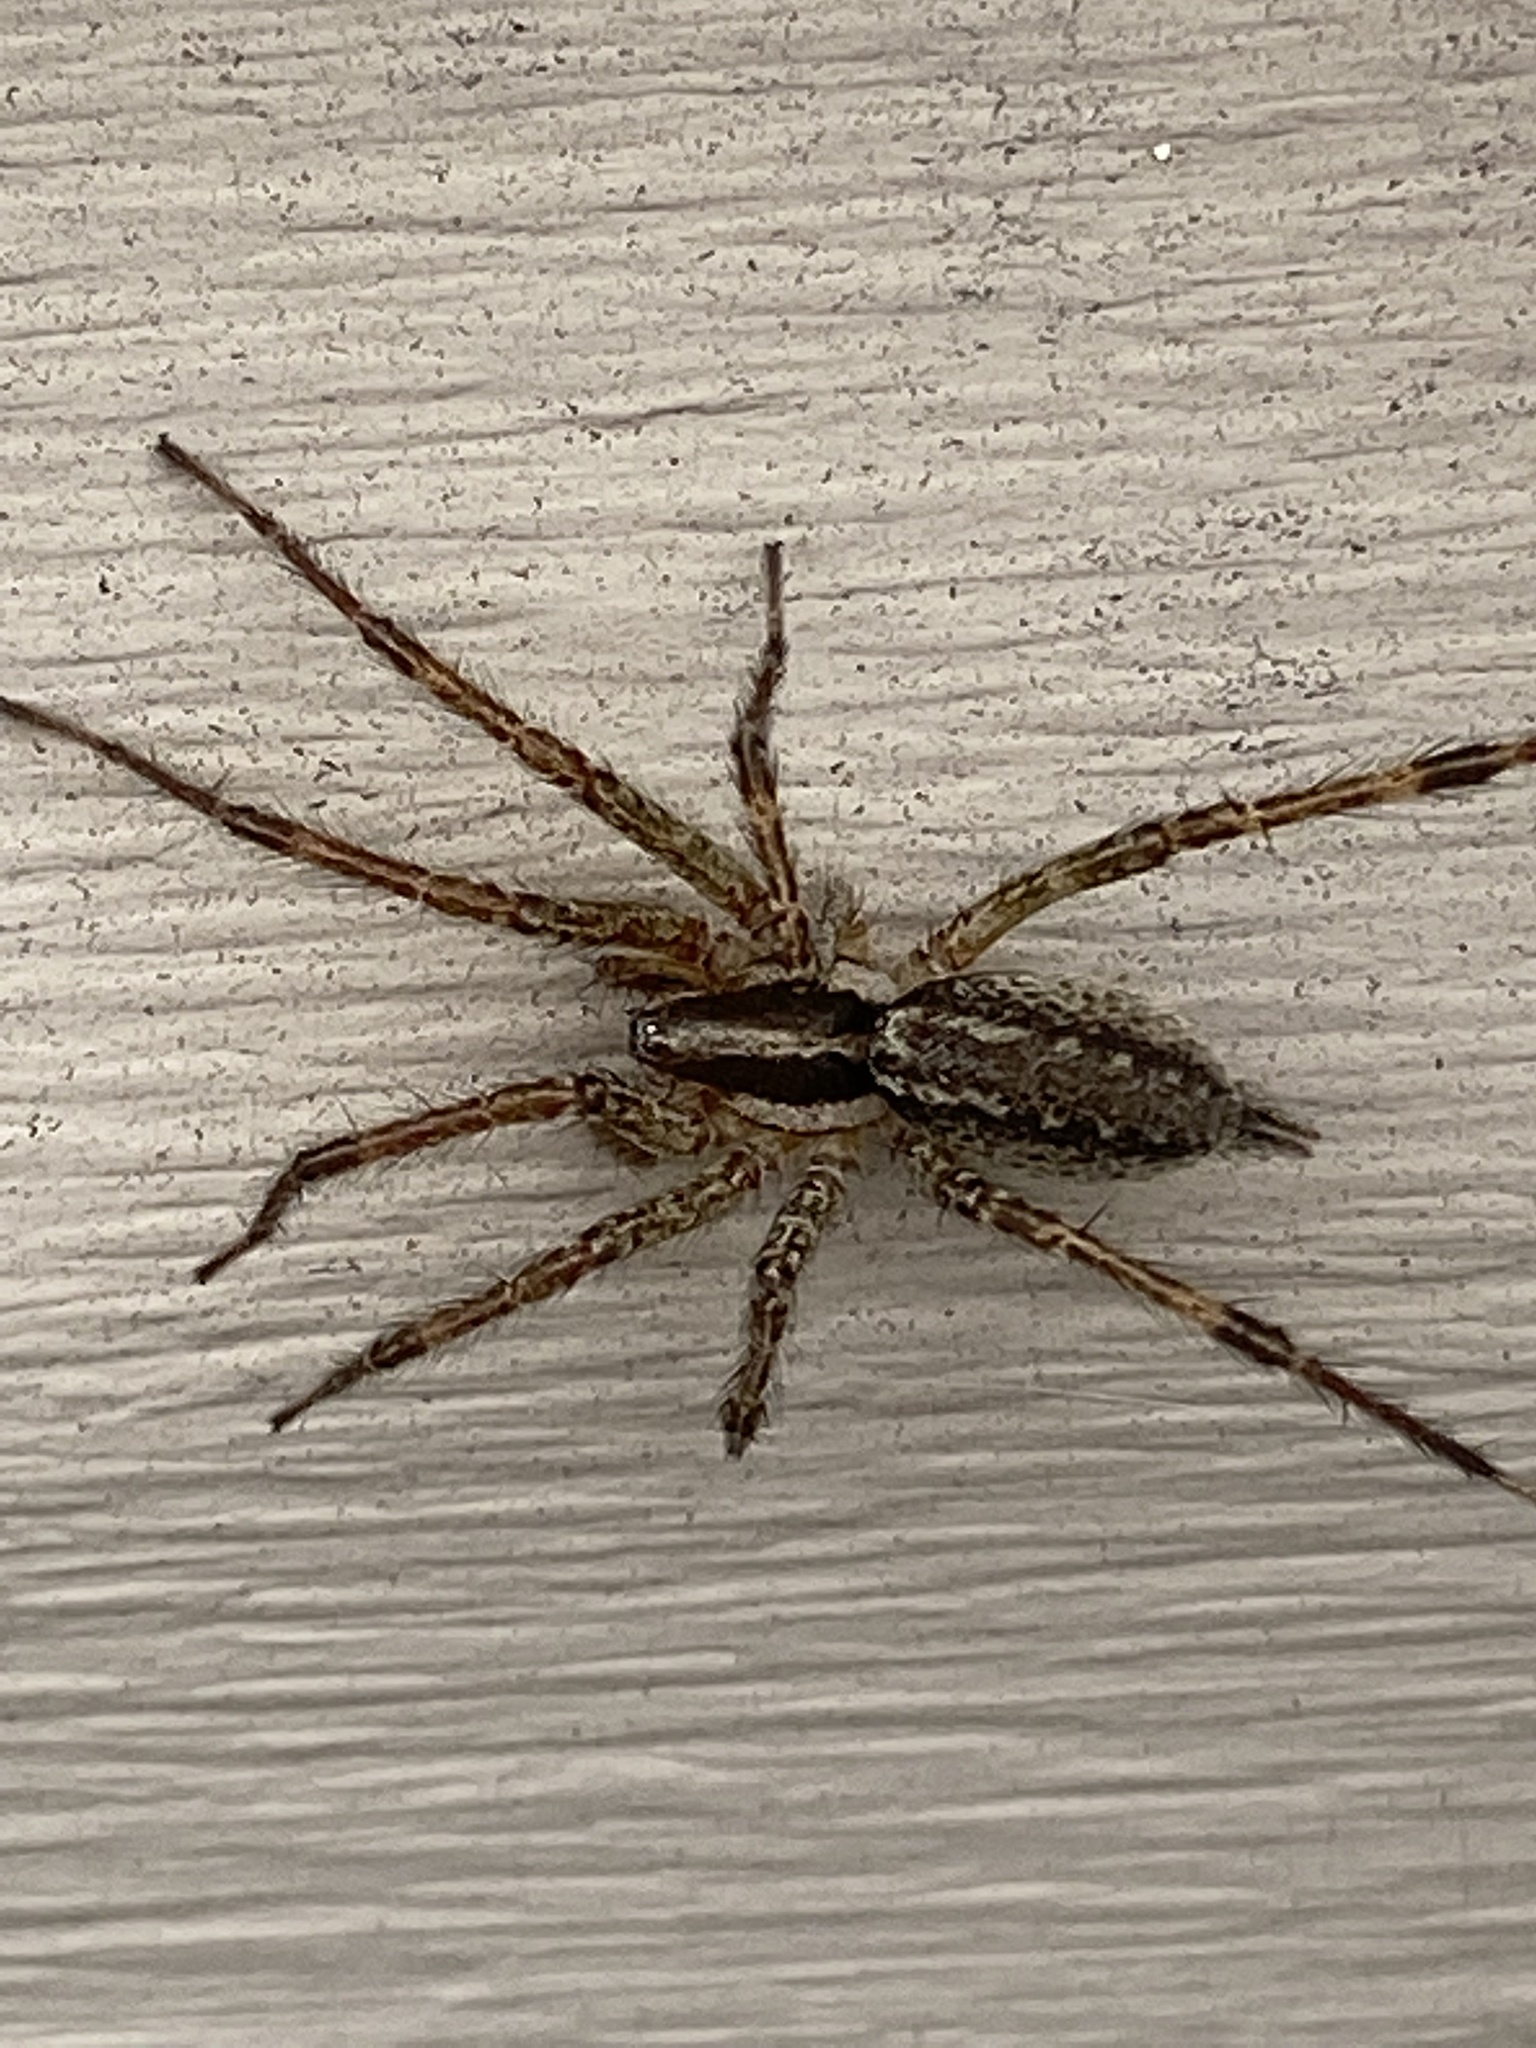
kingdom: Animalia
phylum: Arthropoda
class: Arachnida
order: Araneae
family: Agelenidae
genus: Agelenopsis
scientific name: Agelenopsis
